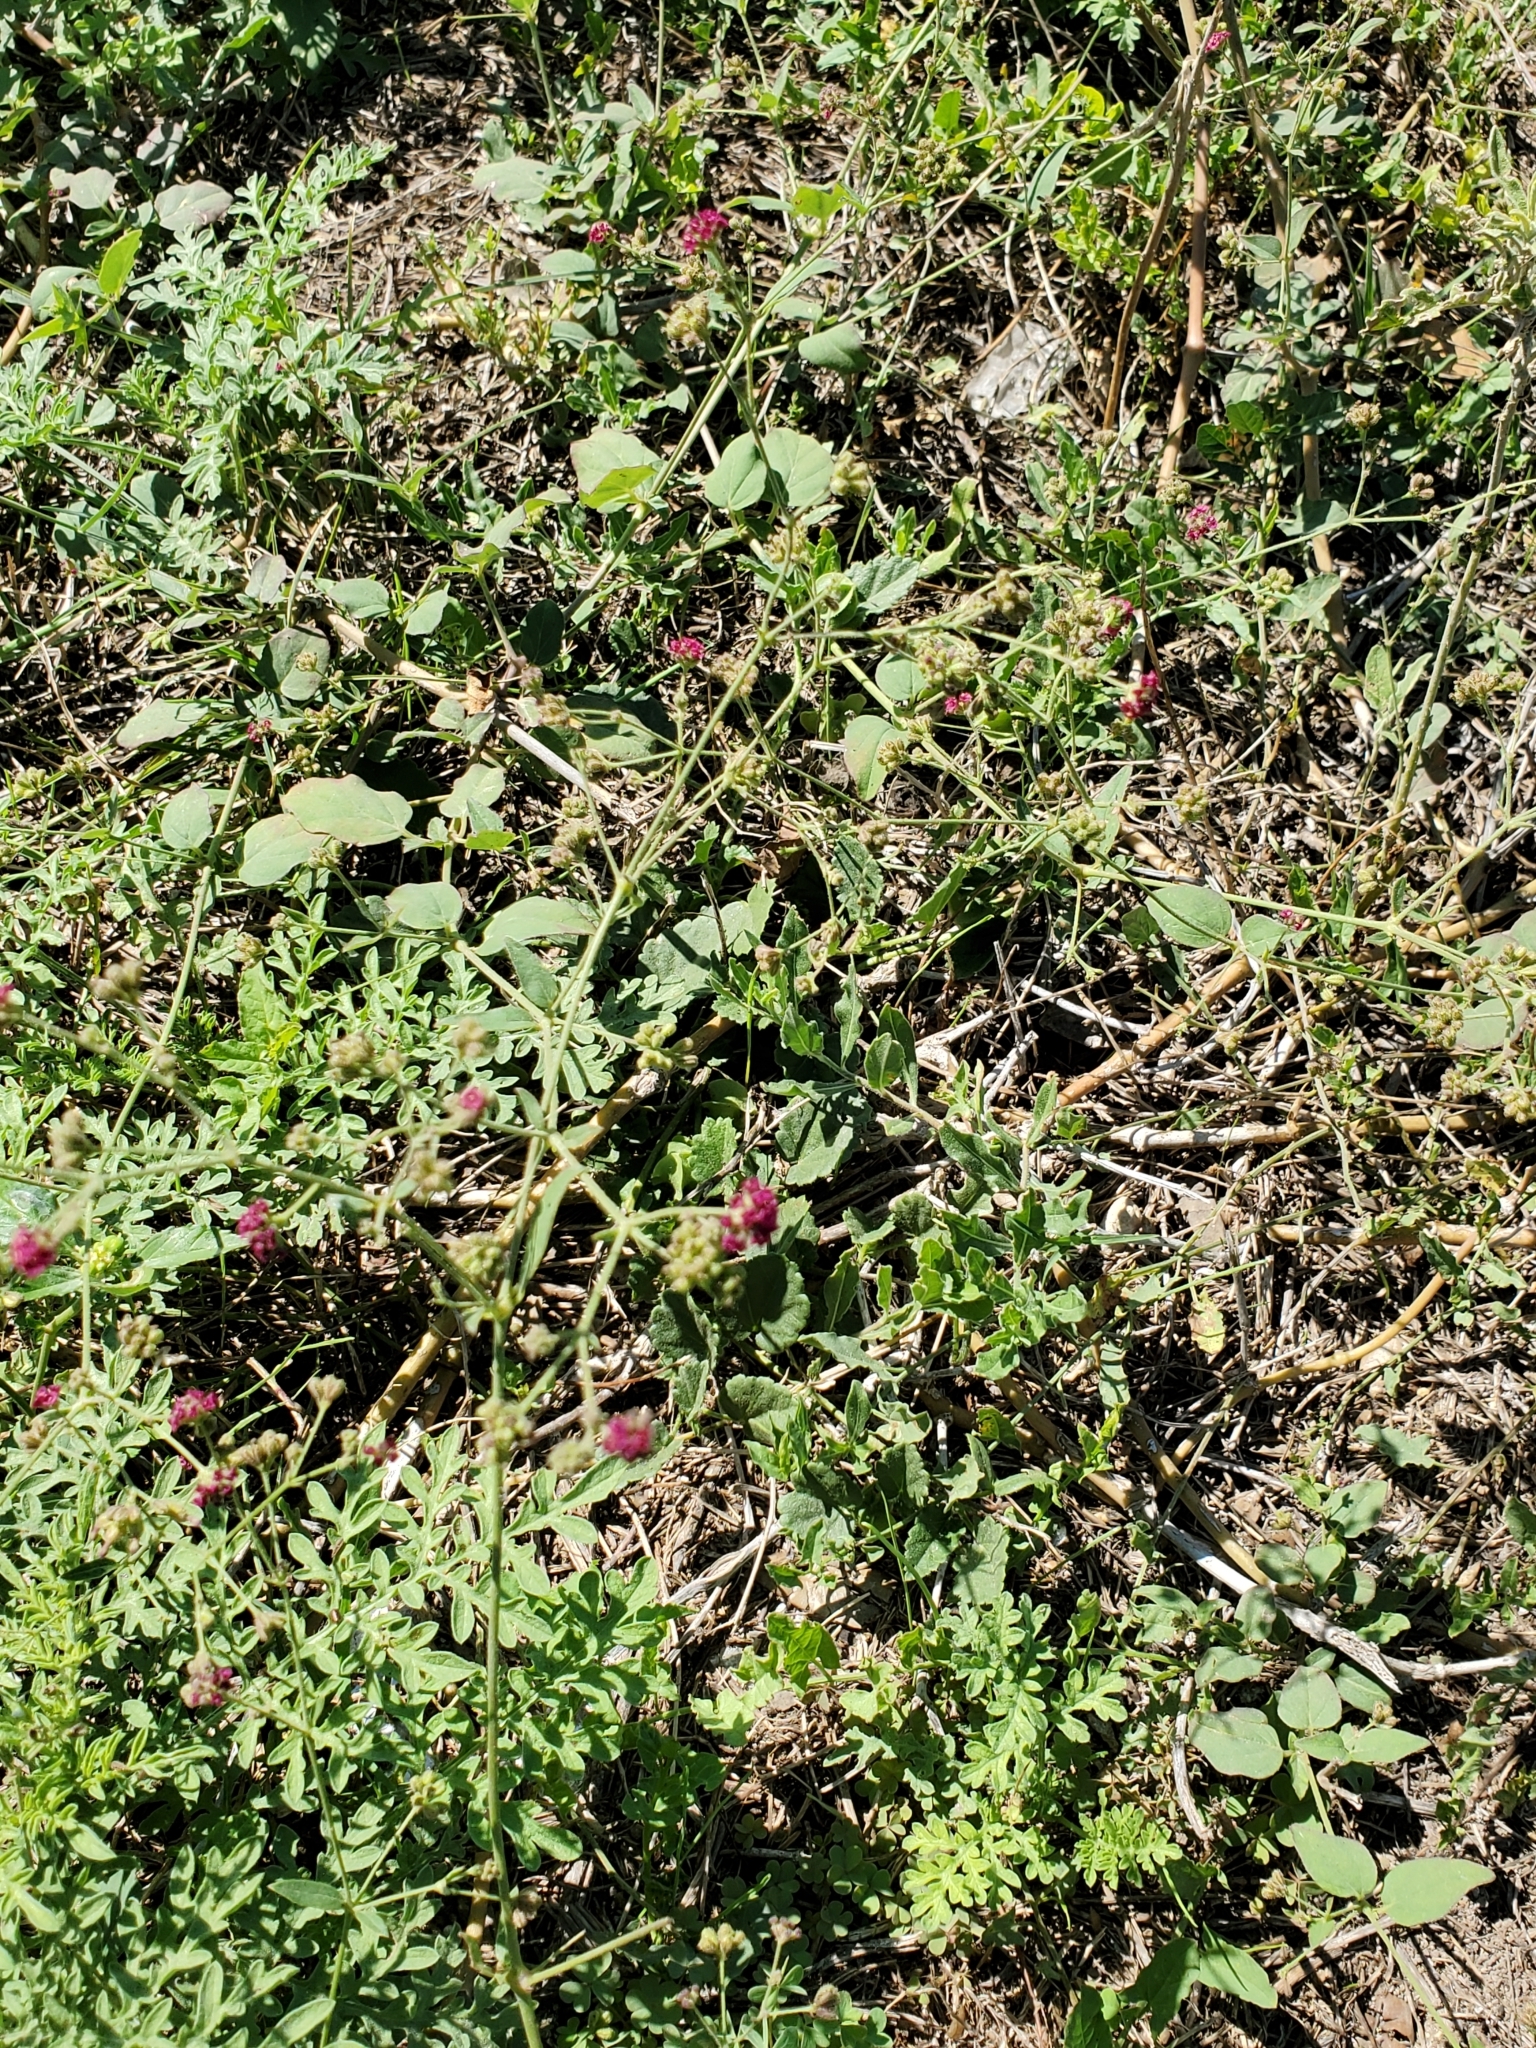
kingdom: Plantae
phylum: Tracheophyta
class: Magnoliopsida
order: Caryophyllales
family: Nyctaginaceae
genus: Boerhavia
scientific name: Boerhavia coccinea
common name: Scarlet spiderling
